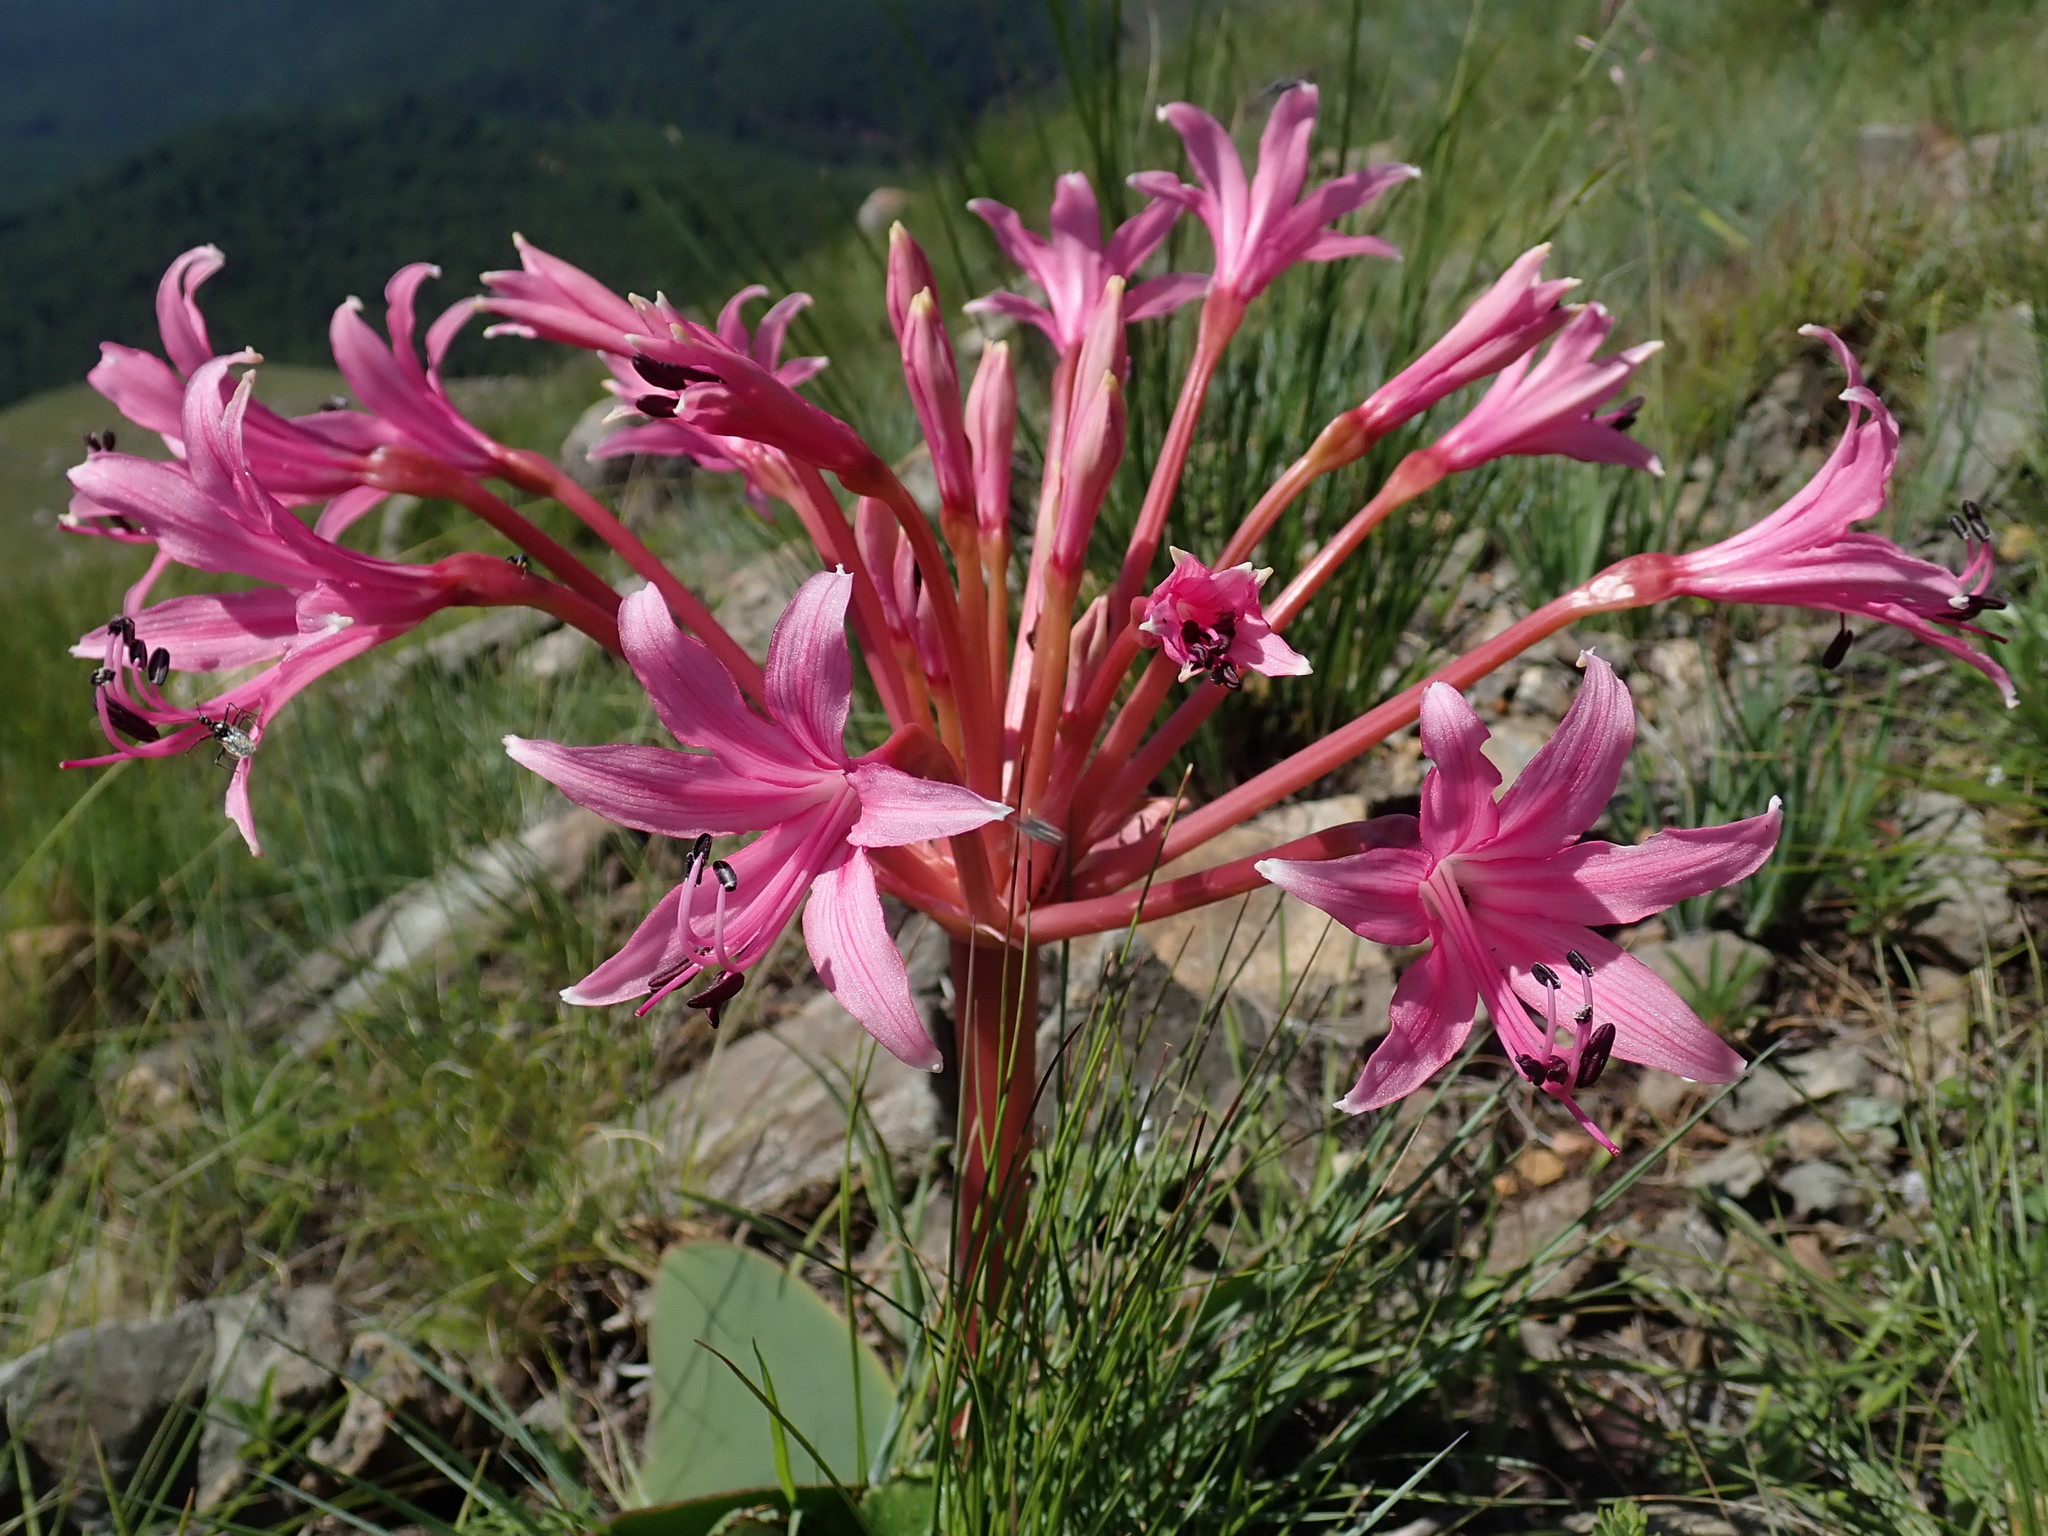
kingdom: Plantae
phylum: Tracheophyta
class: Liliopsida
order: Asparagales
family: Amaryllidaceae
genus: Brunsvigia
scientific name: Brunsvigia radulosa
